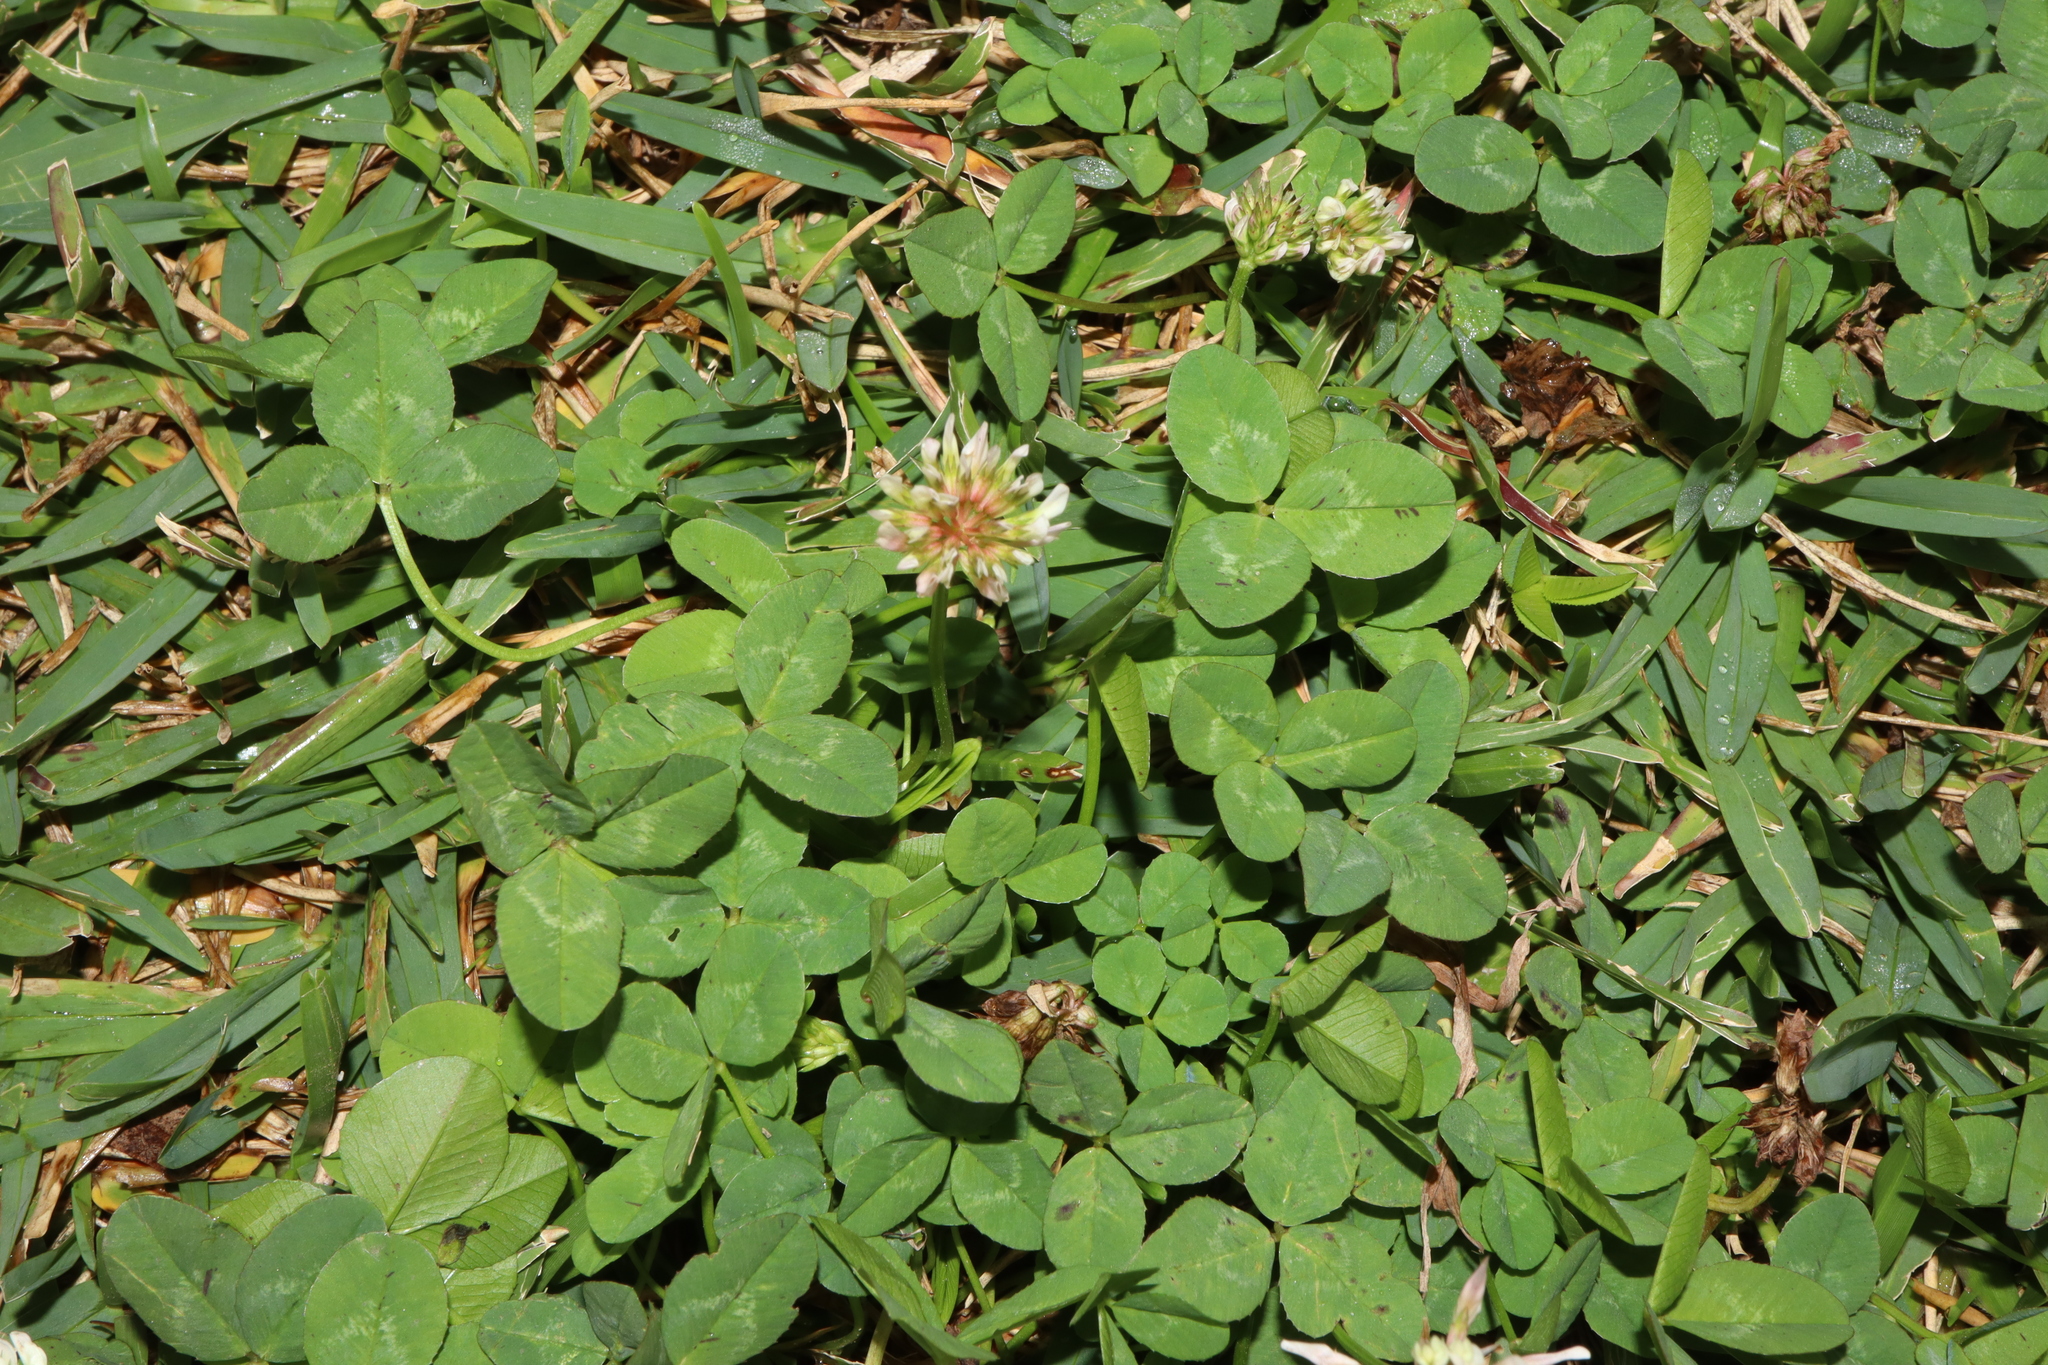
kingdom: Plantae
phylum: Tracheophyta
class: Magnoliopsida
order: Fabales
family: Fabaceae
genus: Trifolium
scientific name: Trifolium repens
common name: White clover
